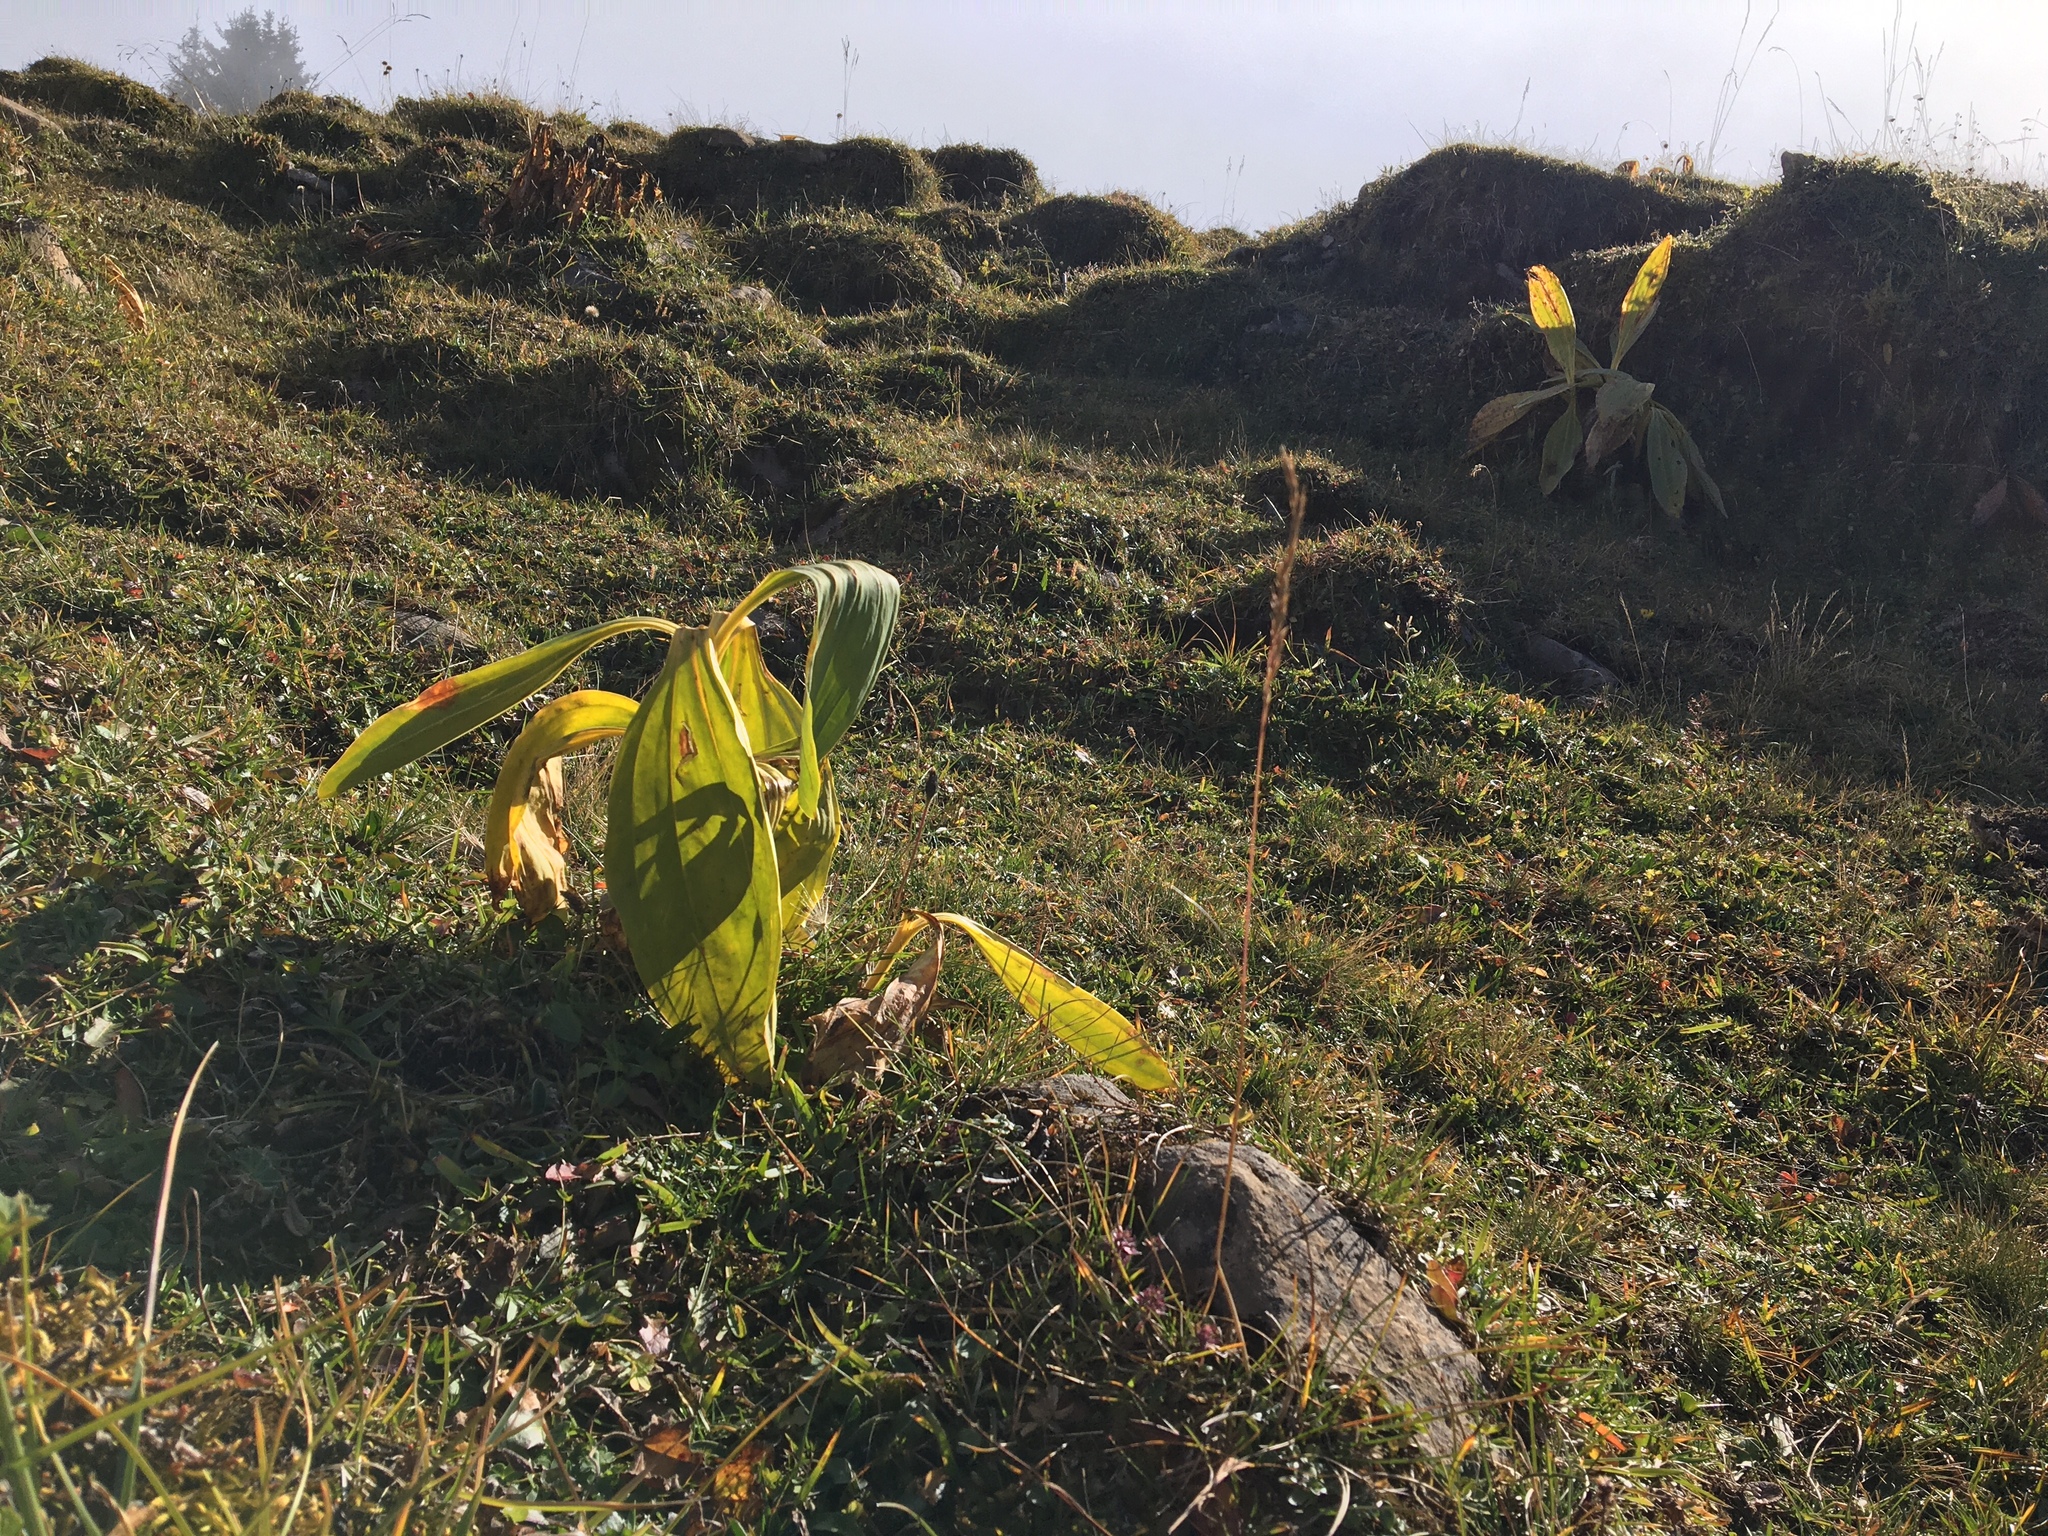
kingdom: Plantae
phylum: Tracheophyta
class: Magnoliopsida
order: Gentianales
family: Gentianaceae
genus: Gentiana
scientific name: Gentiana lutea
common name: Great yellow gentian
